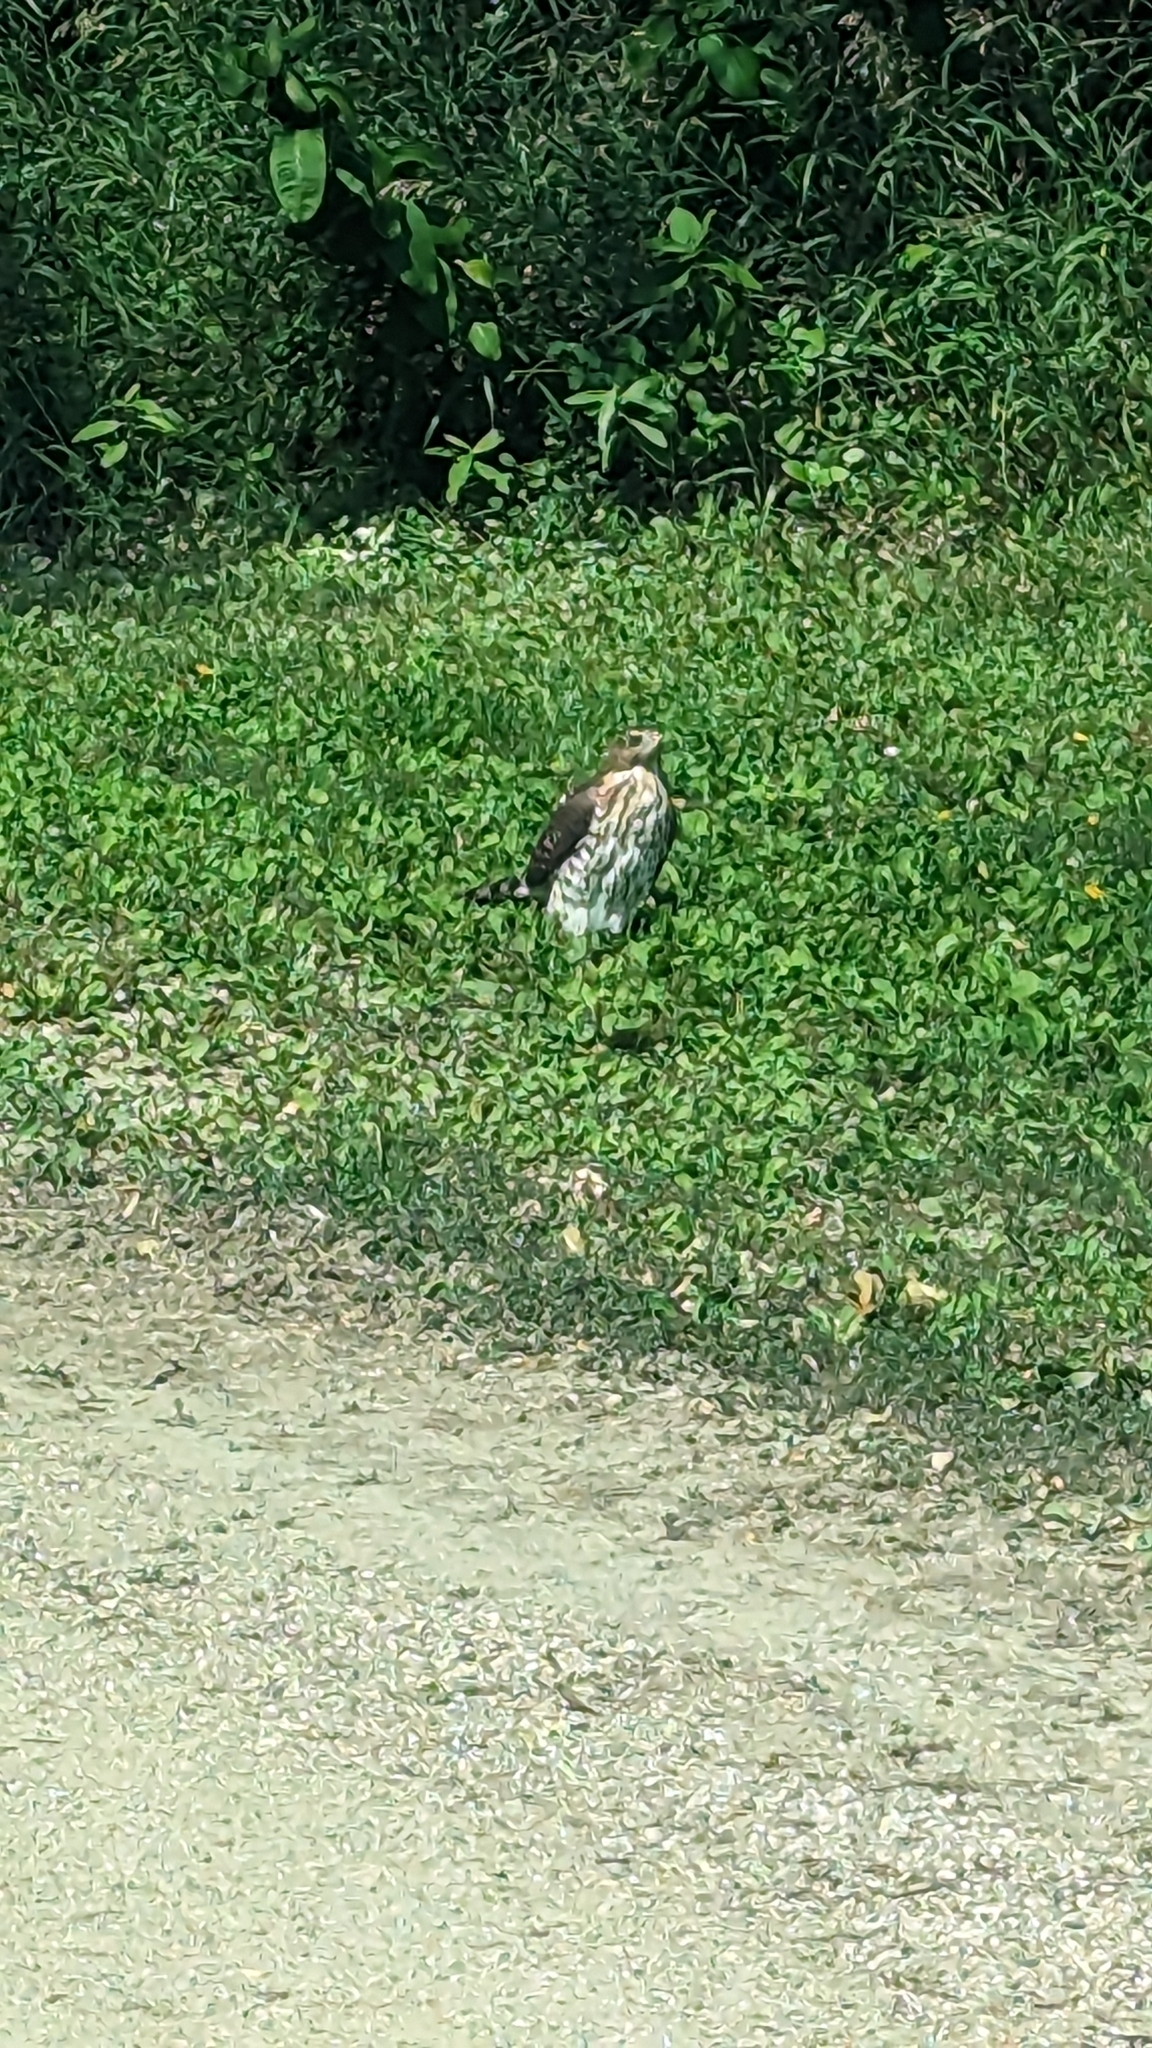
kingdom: Animalia
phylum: Chordata
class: Aves
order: Accipitriformes
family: Accipitridae
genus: Accipiter
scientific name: Accipiter cooperii
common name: Cooper's hawk
